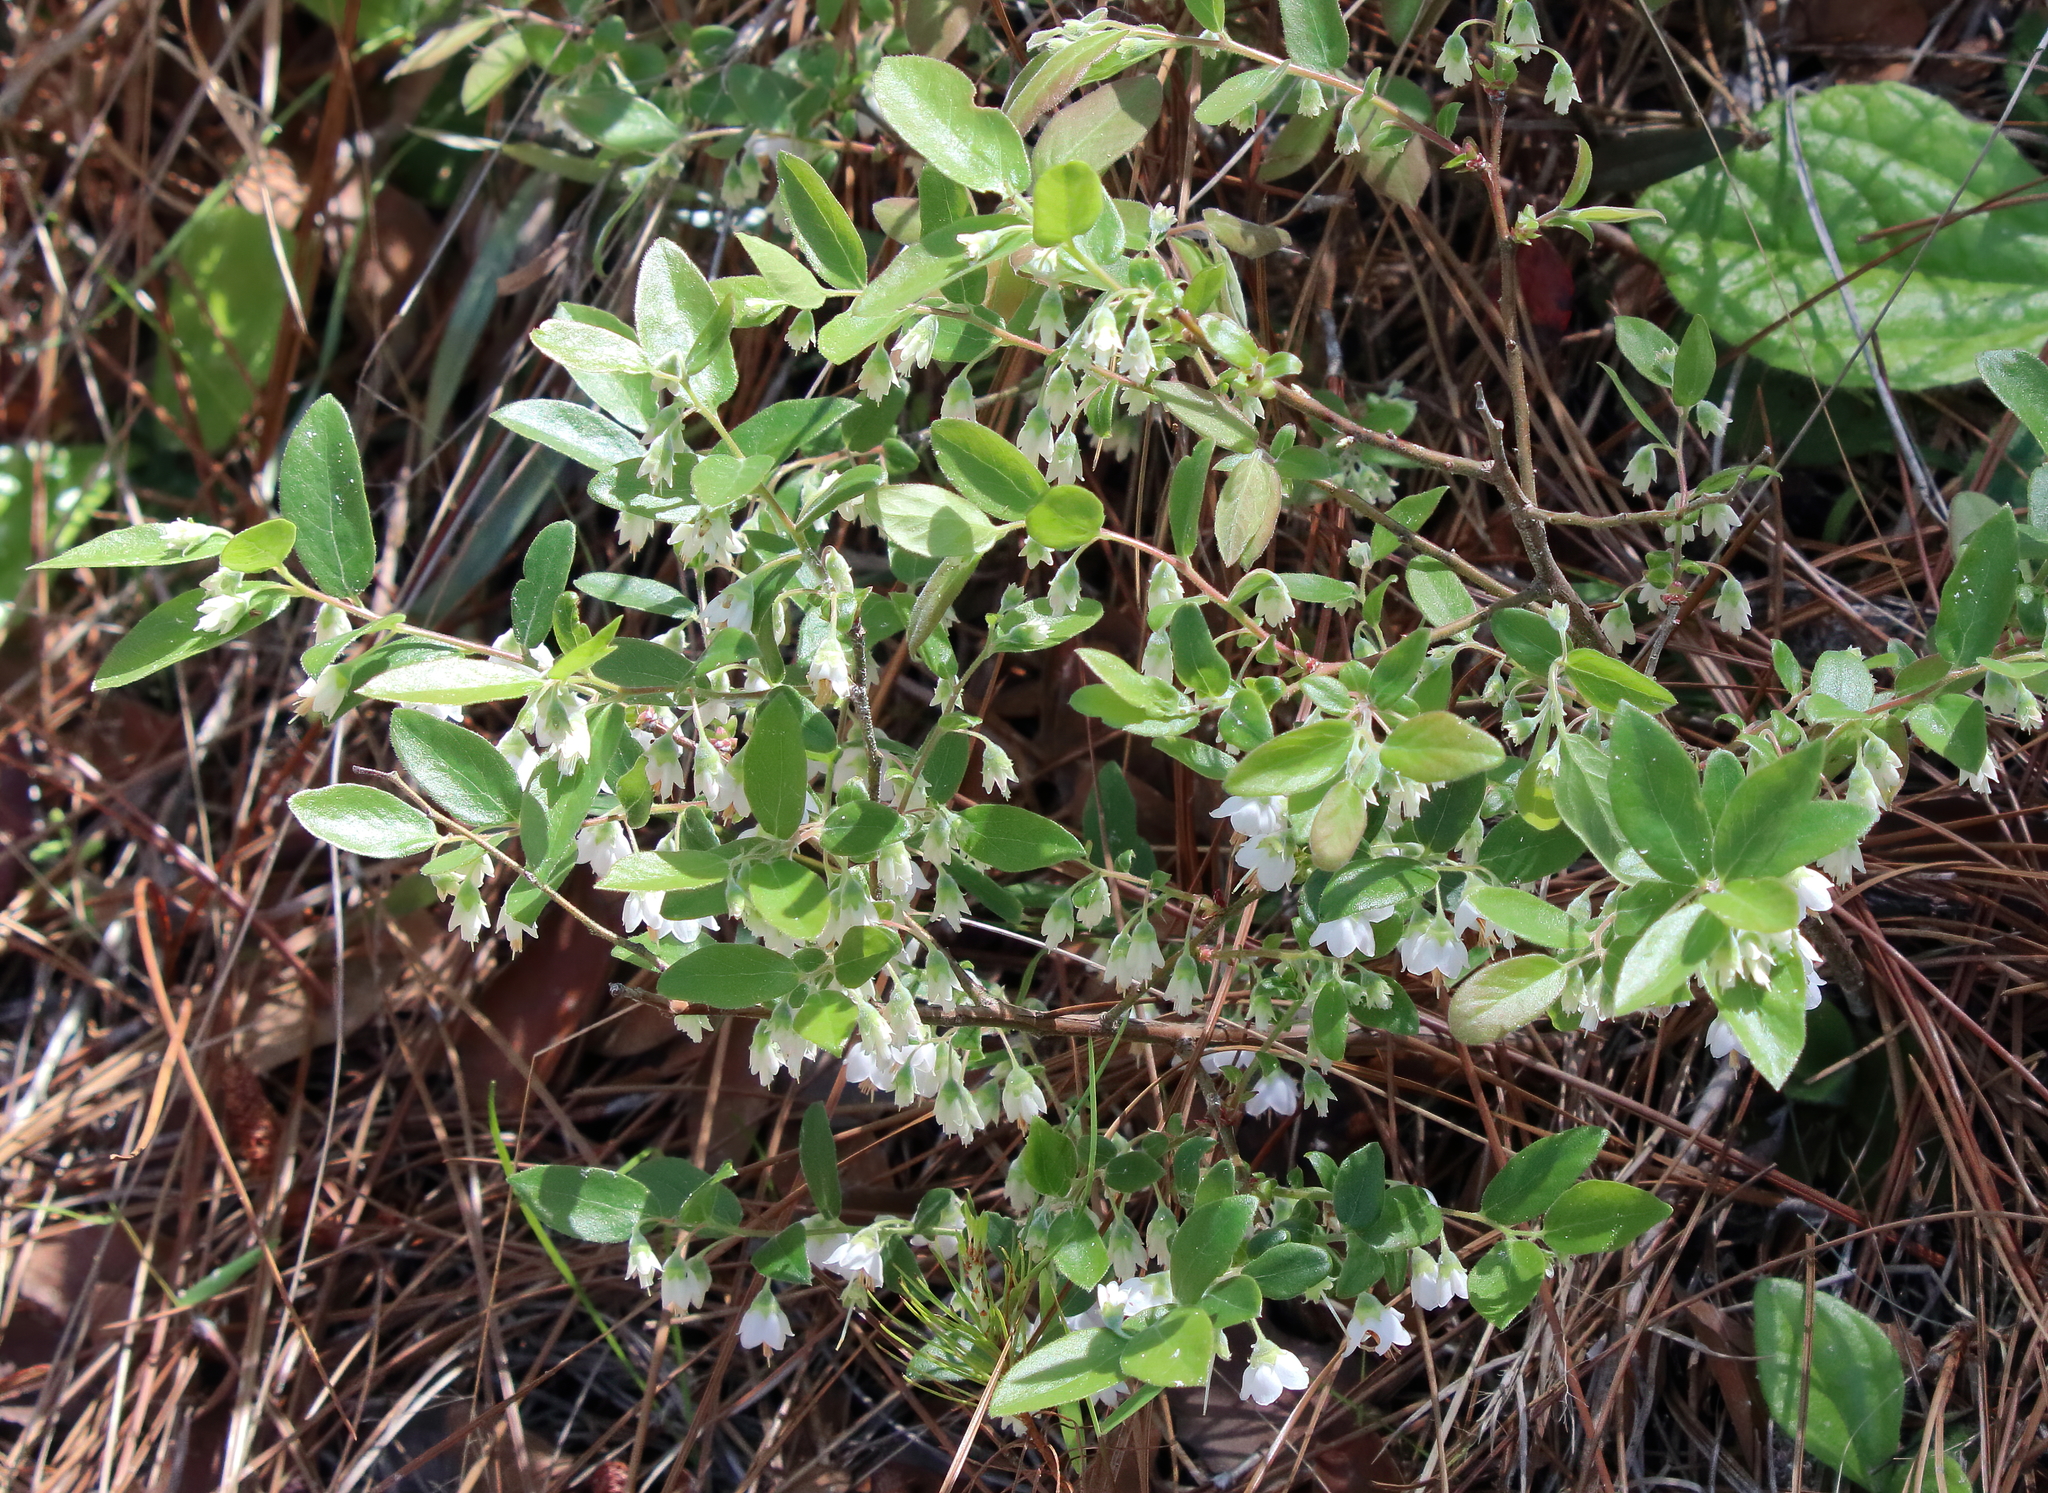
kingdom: Plantae
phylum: Tracheophyta
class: Magnoliopsida
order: Ericales
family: Ericaceae
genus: Vaccinium
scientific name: Vaccinium stamineum
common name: Deerberry
